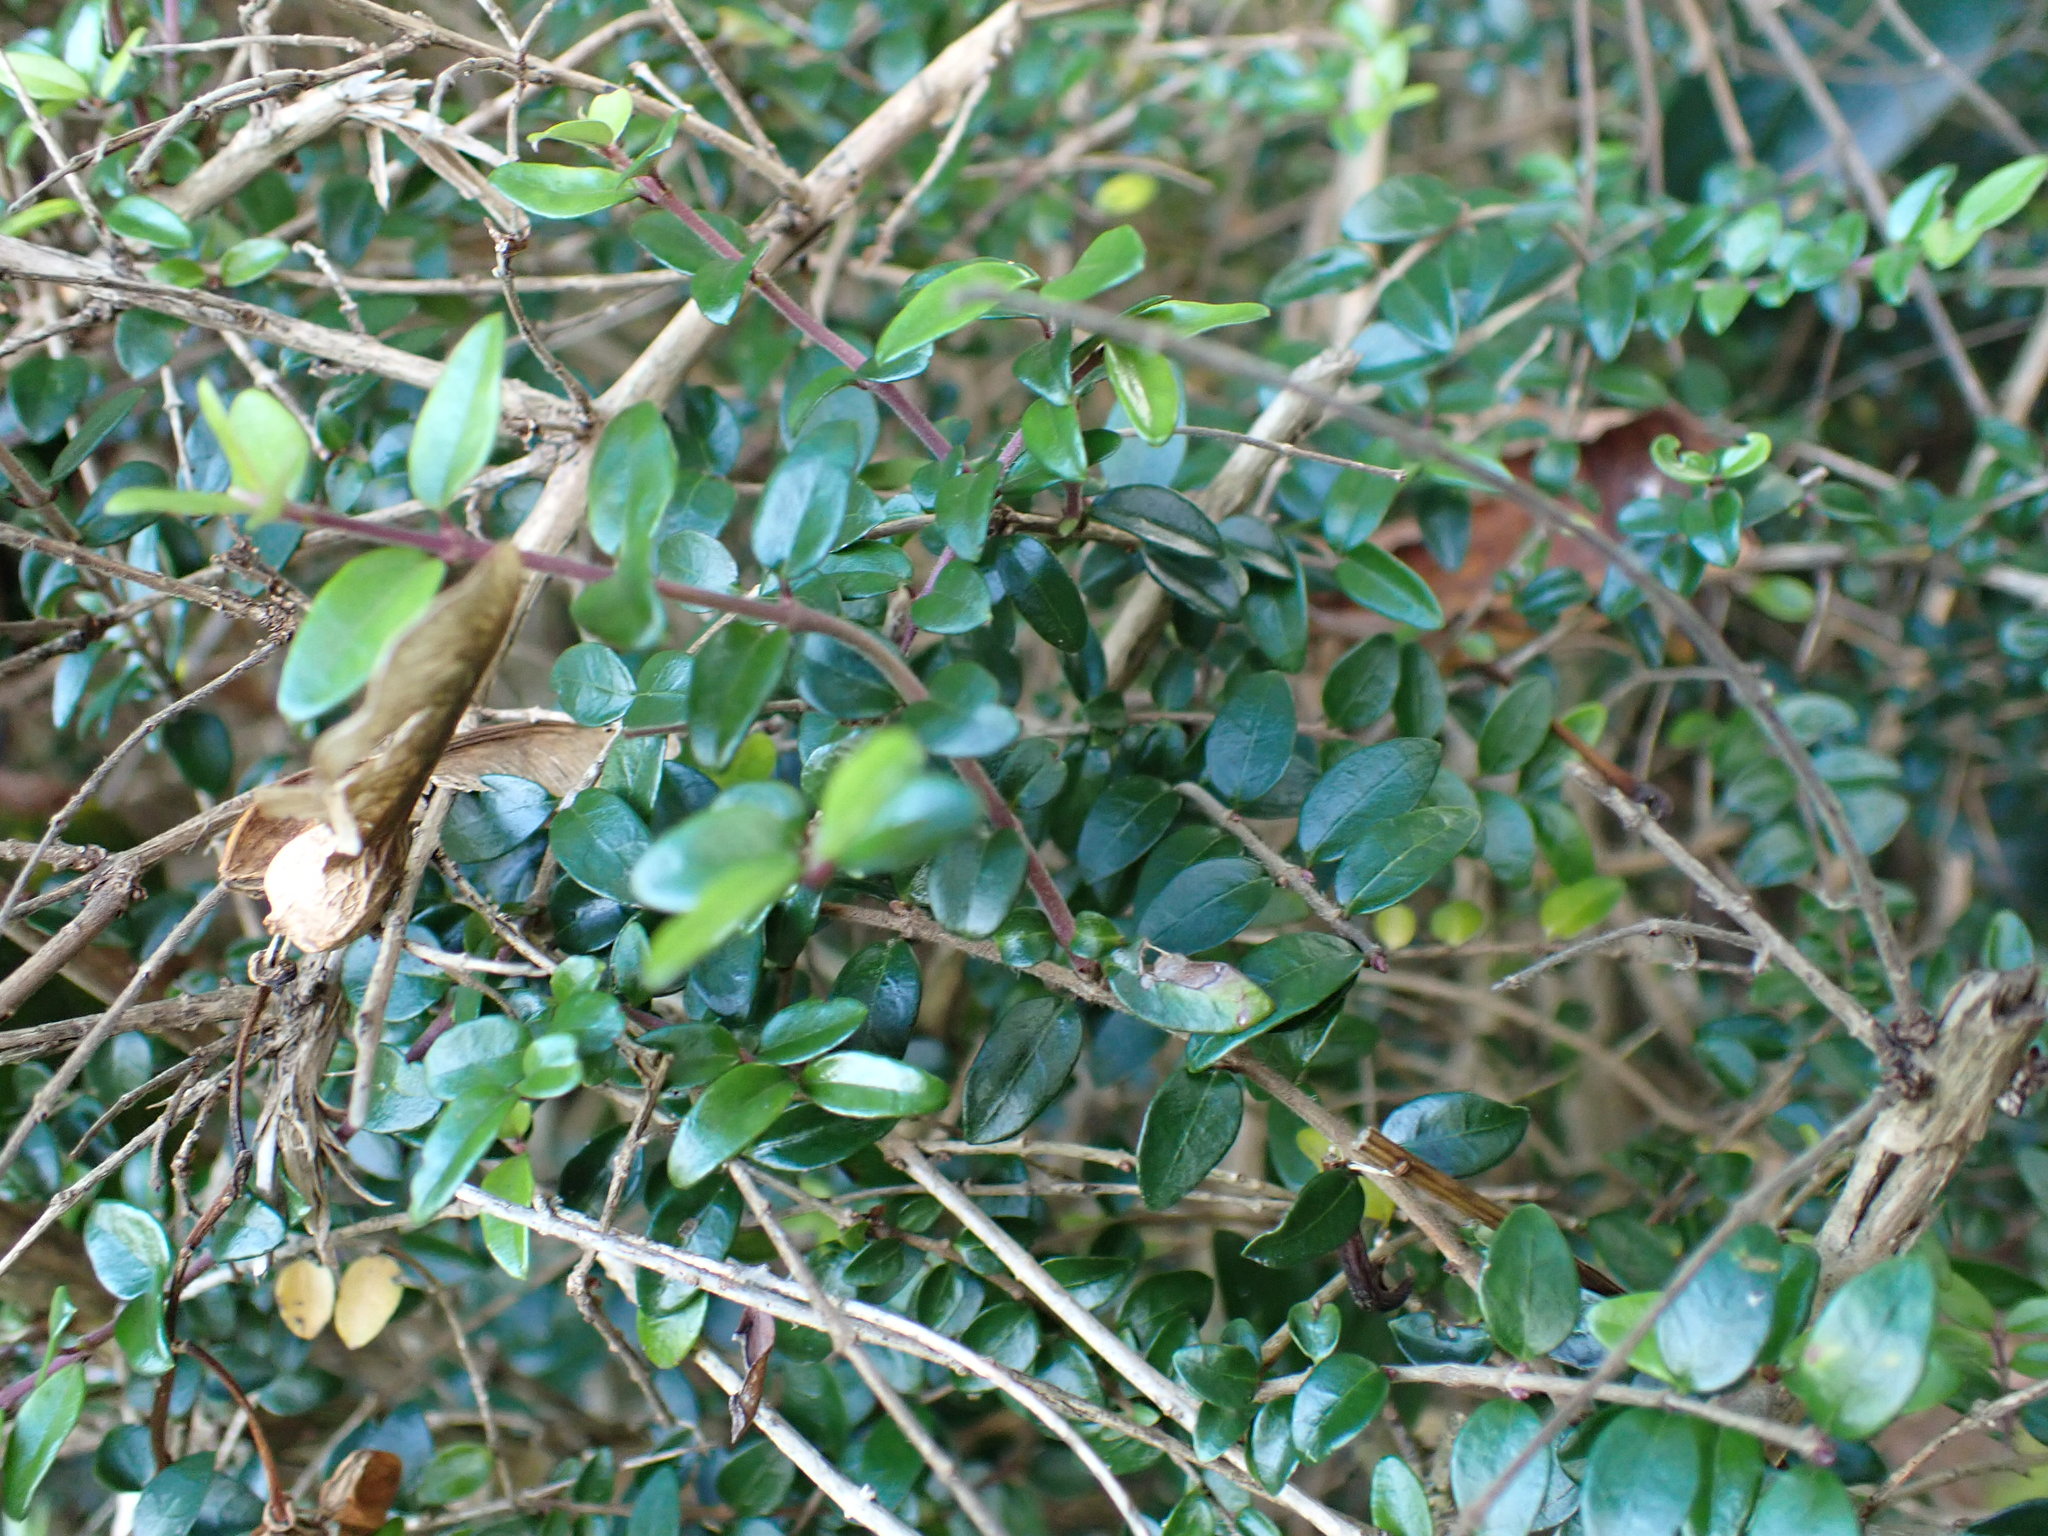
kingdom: Plantae
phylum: Tracheophyta
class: Magnoliopsida
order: Dipsacales
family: Caprifoliaceae
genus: Lonicera
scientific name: Lonicera pileata
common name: Box-leaved honeysuckle
